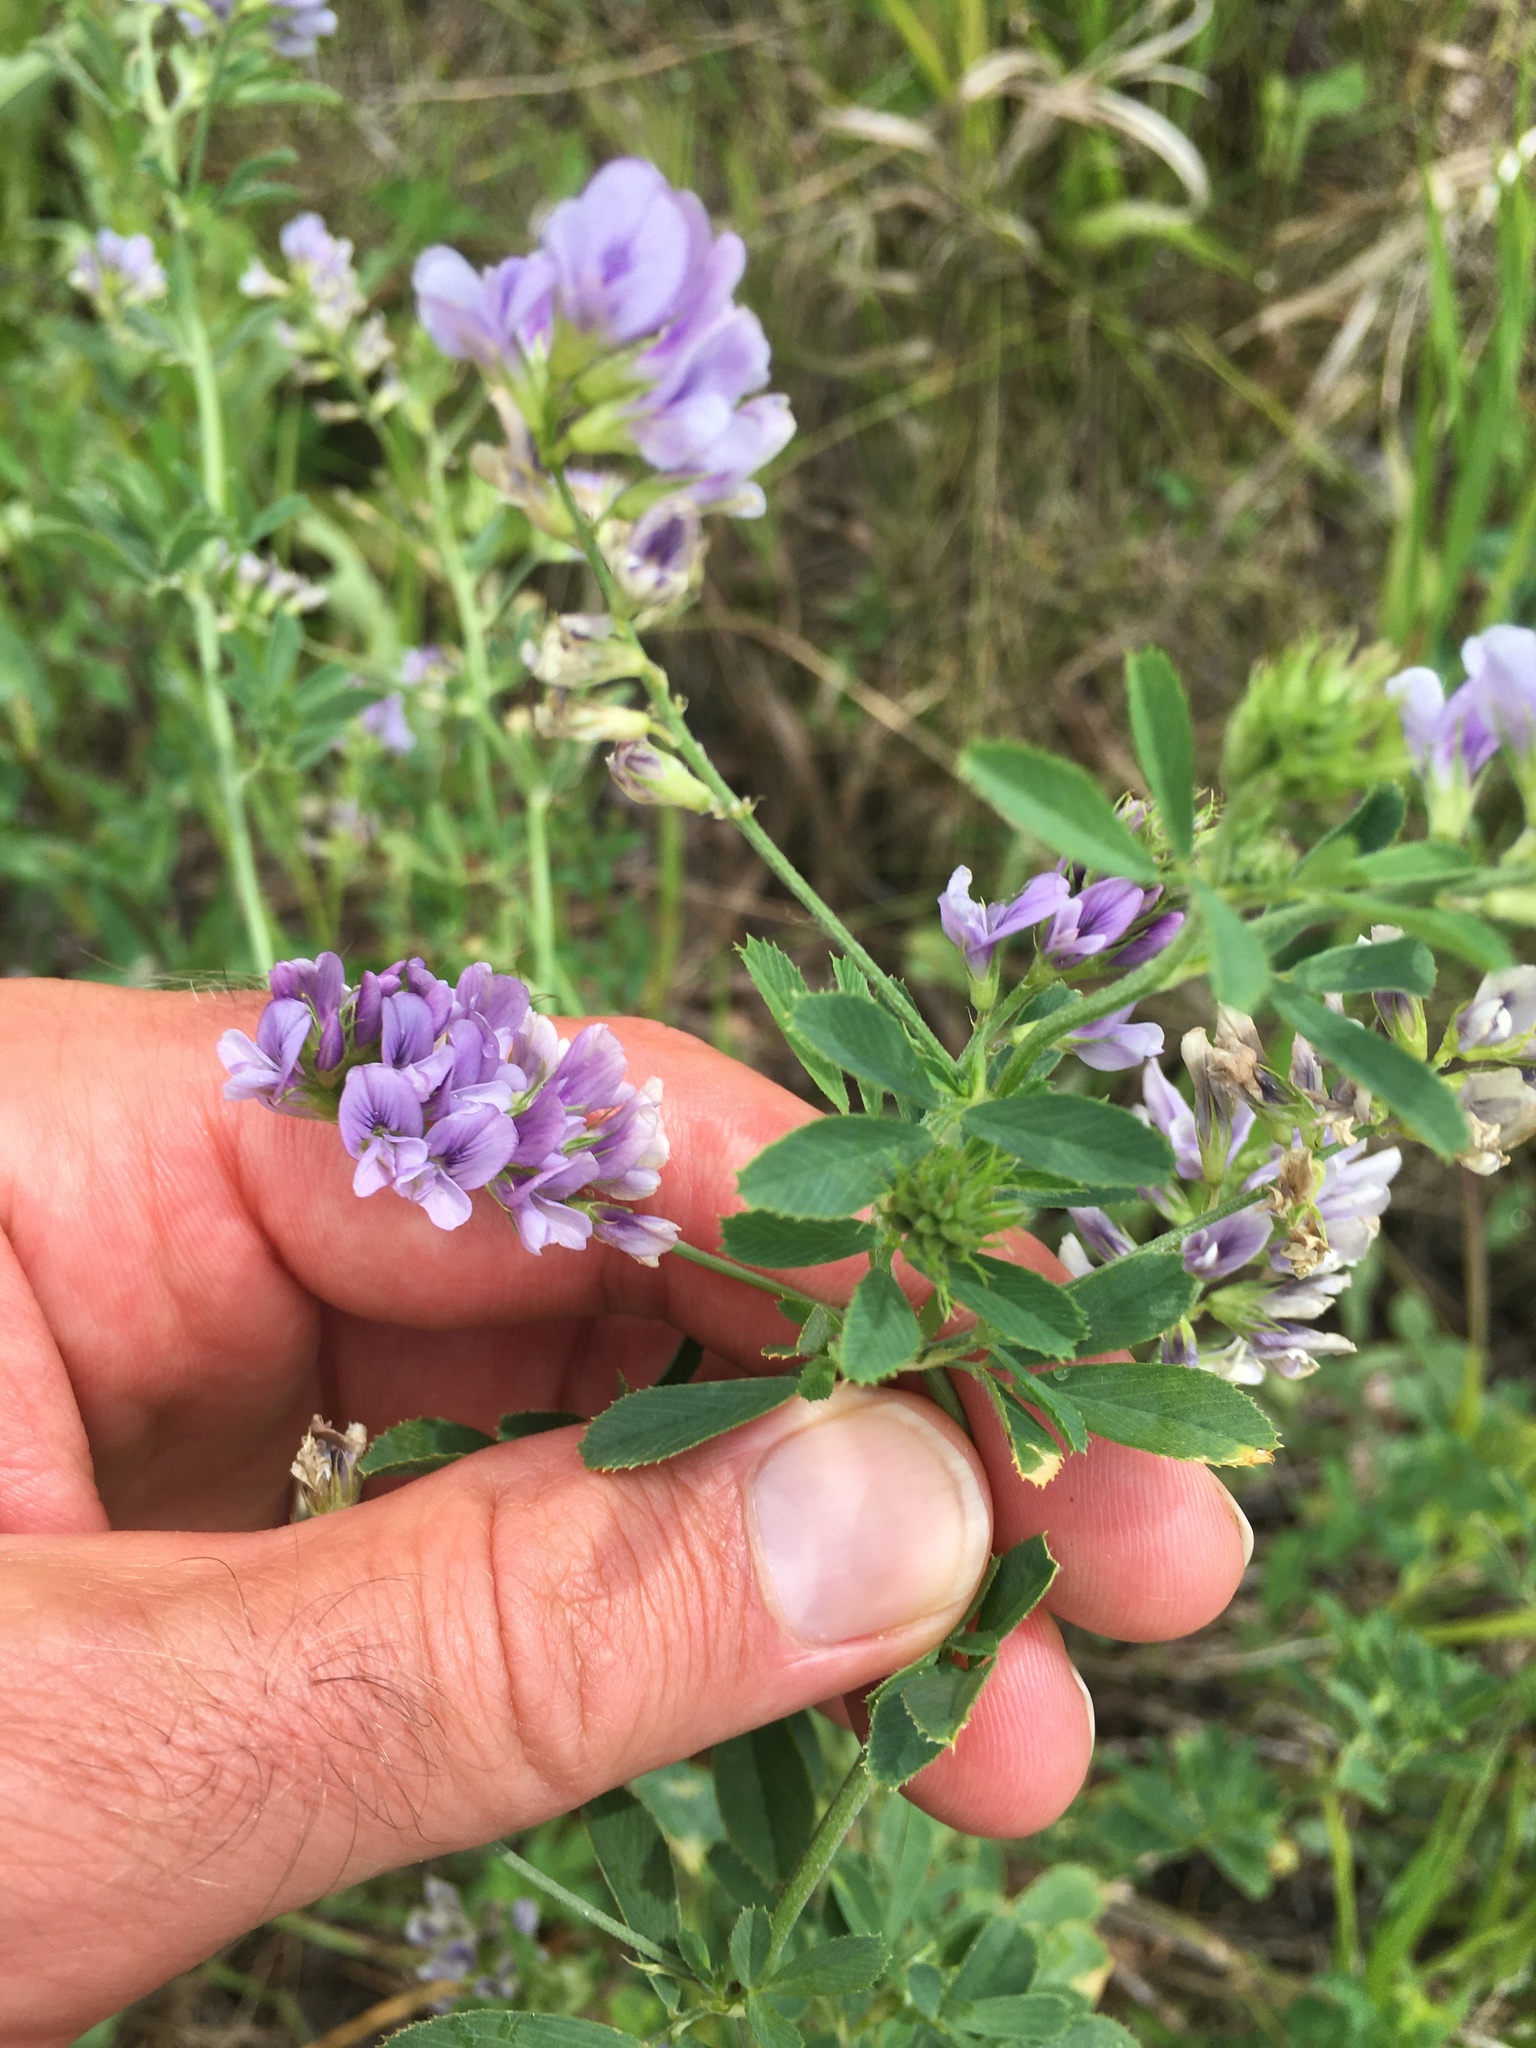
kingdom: Plantae
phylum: Tracheophyta
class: Magnoliopsida
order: Fabales
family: Fabaceae
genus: Medicago
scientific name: Medicago sativa
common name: Alfalfa
